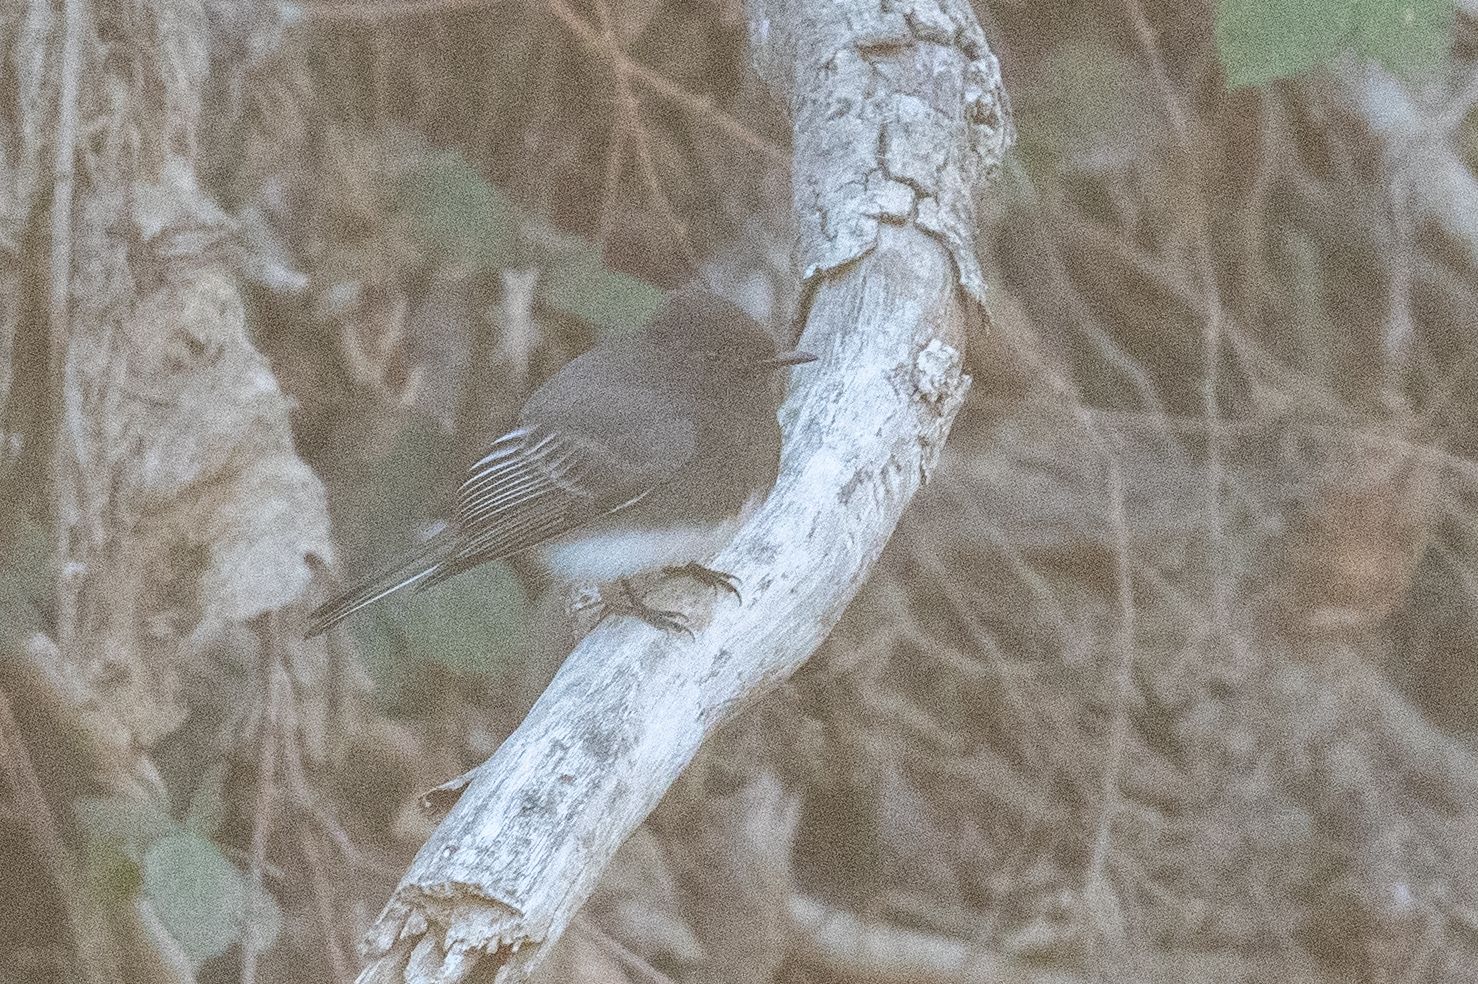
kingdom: Animalia
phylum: Chordata
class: Aves
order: Passeriformes
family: Tyrannidae
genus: Sayornis
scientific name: Sayornis nigricans
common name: Black phoebe
